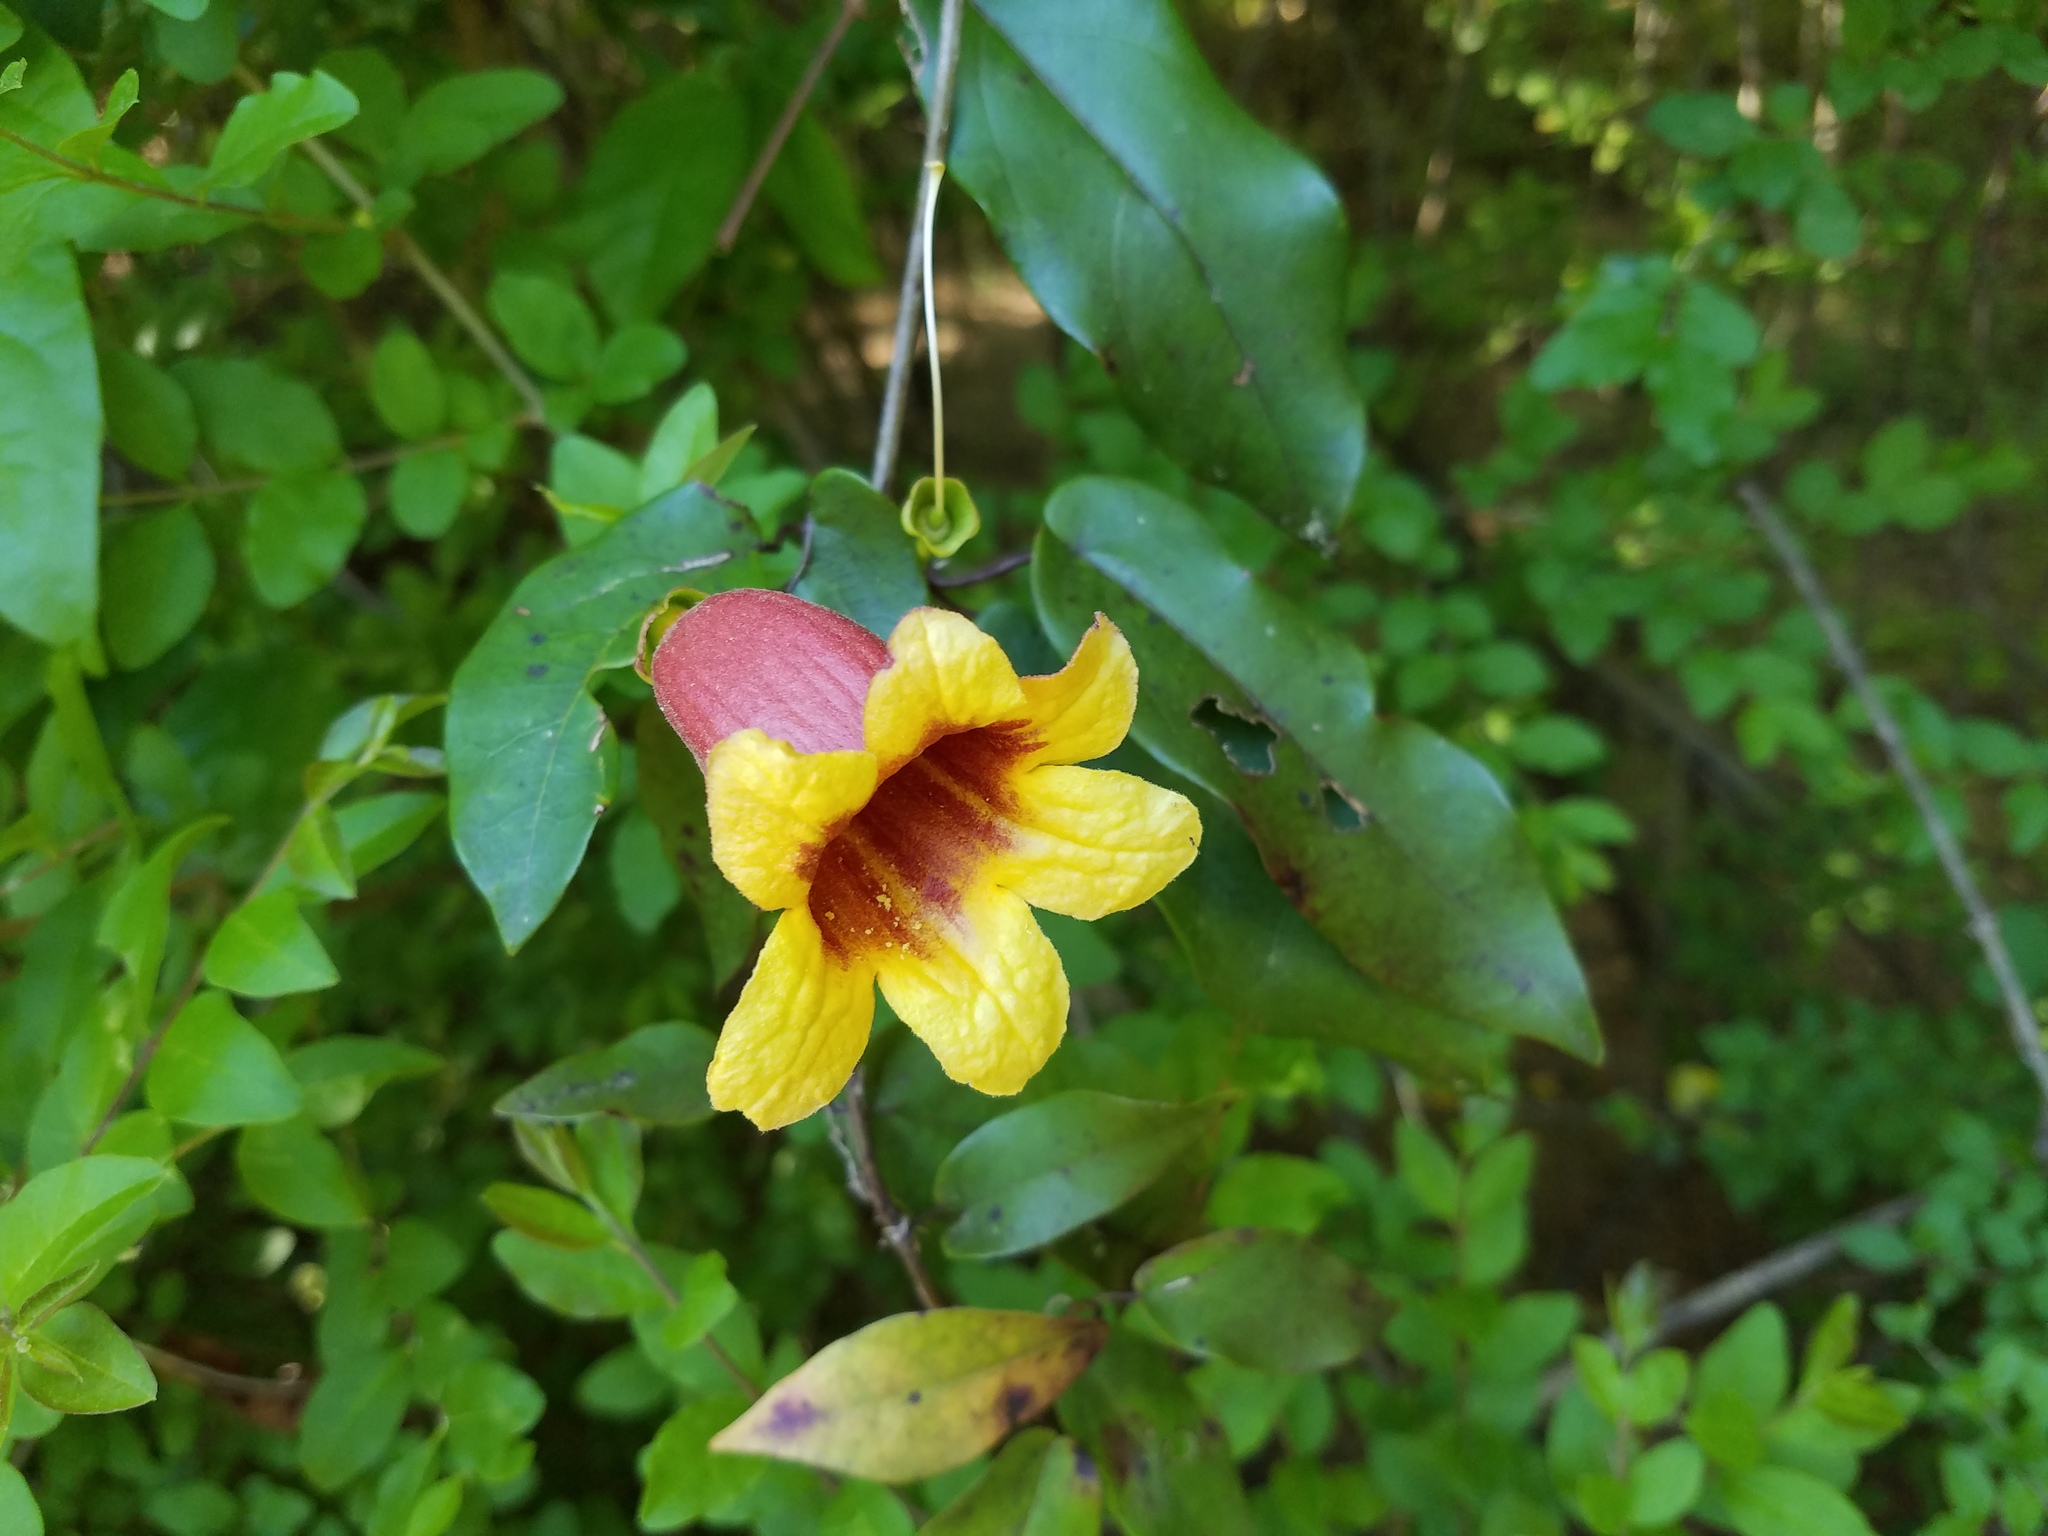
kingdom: Plantae
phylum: Tracheophyta
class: Magnoliopsida
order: Lamiales
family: Bignoniaceae
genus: Bignonia
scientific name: Bignonia capreolata
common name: Crossvine
